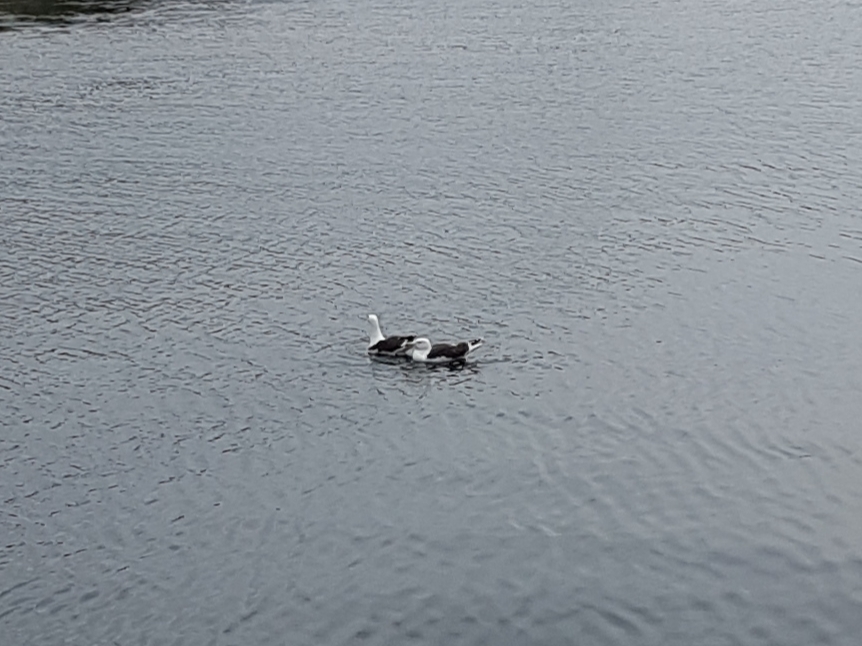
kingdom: Animalia
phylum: Chordata
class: Aves
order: Charadriiformes
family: Laridae
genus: Larus
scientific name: Larus marinus
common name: Great black-backed gull
